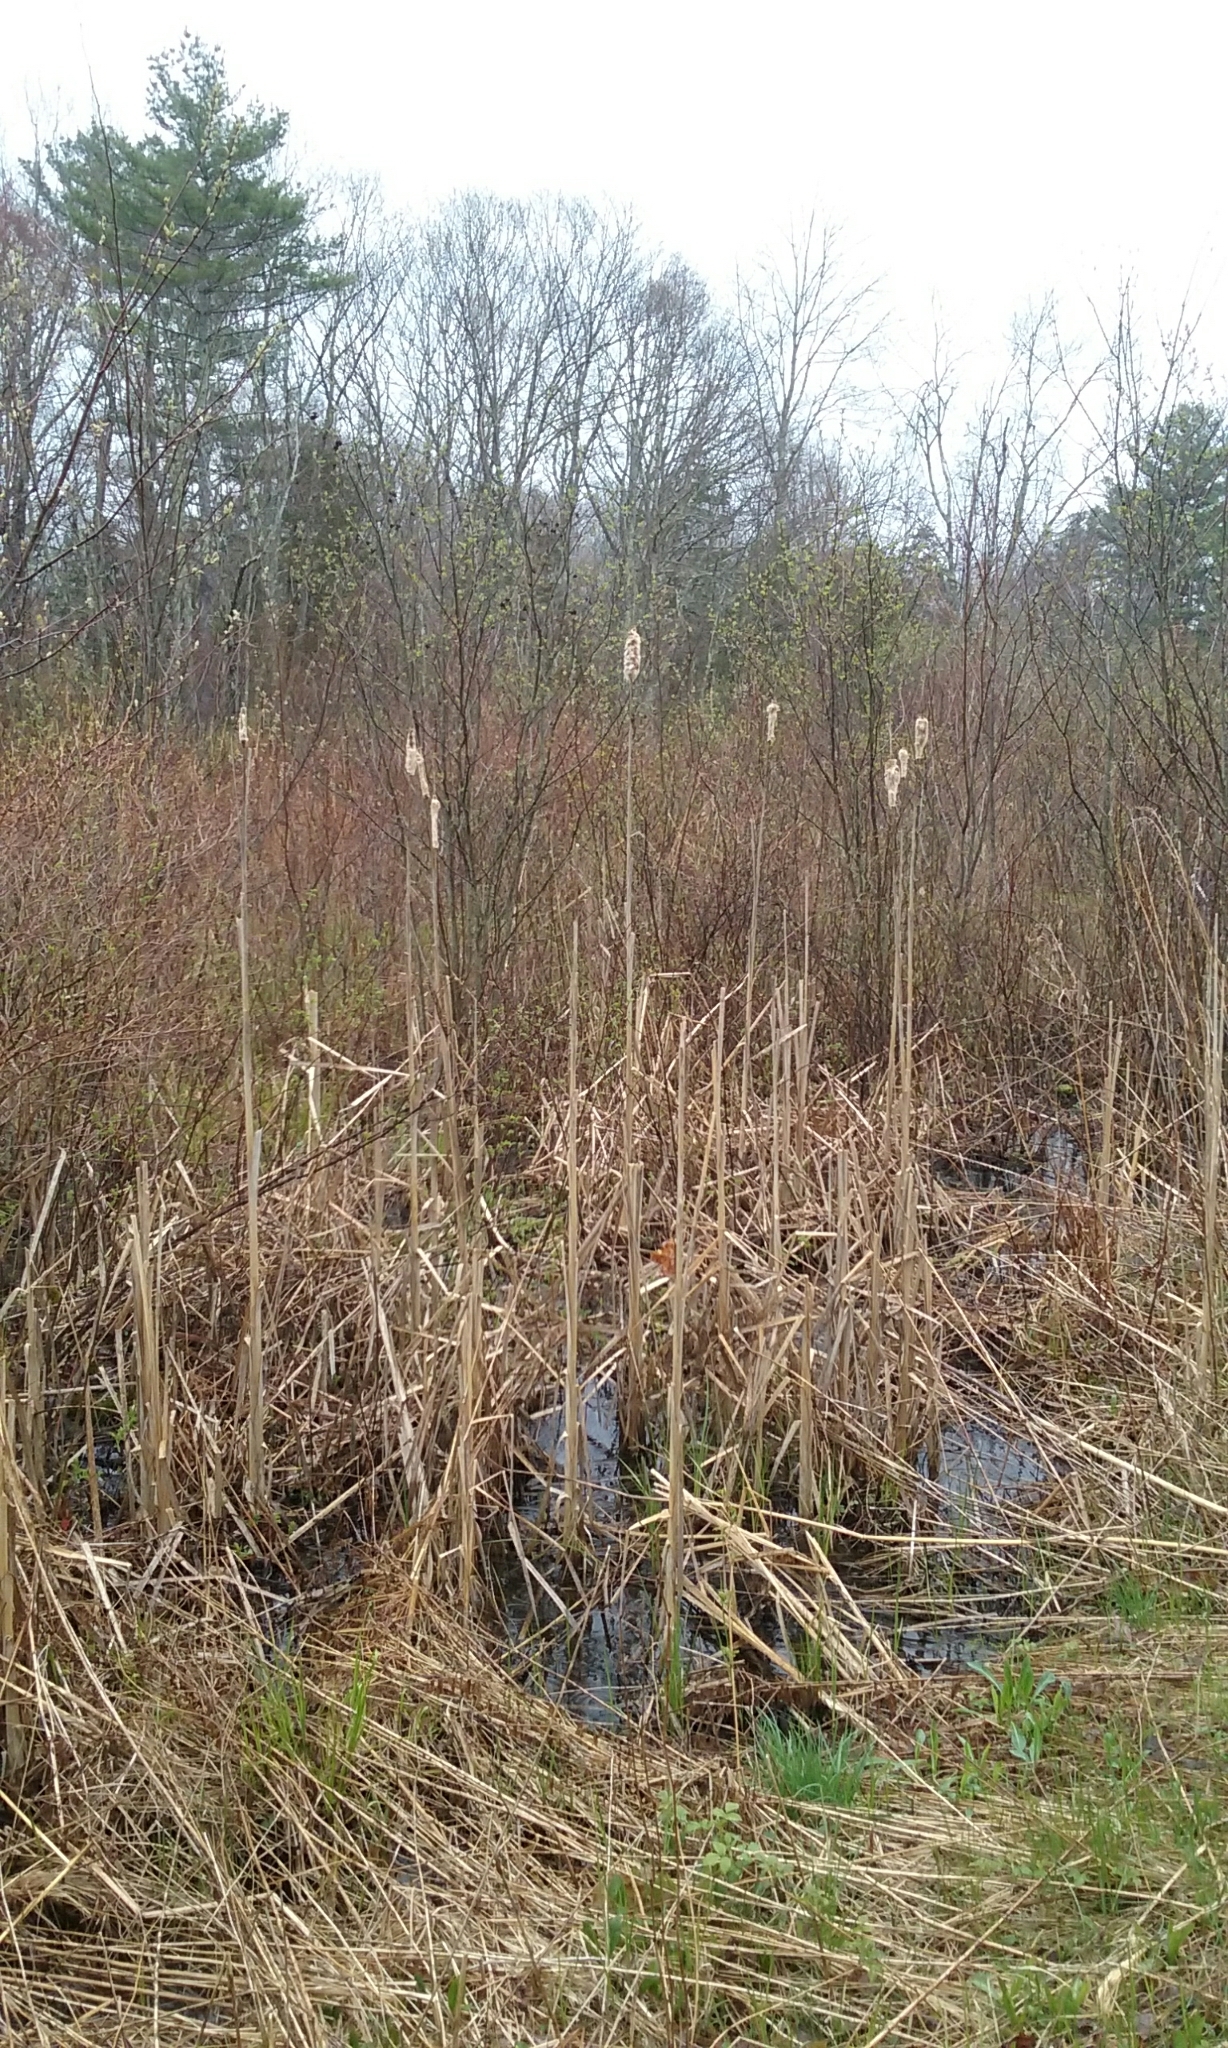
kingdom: Plantae
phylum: Tracheophyta
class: Liliopsida
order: Poales
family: Typhaceae
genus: Typha
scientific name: Typha latifolia
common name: Broadleaf cattail
